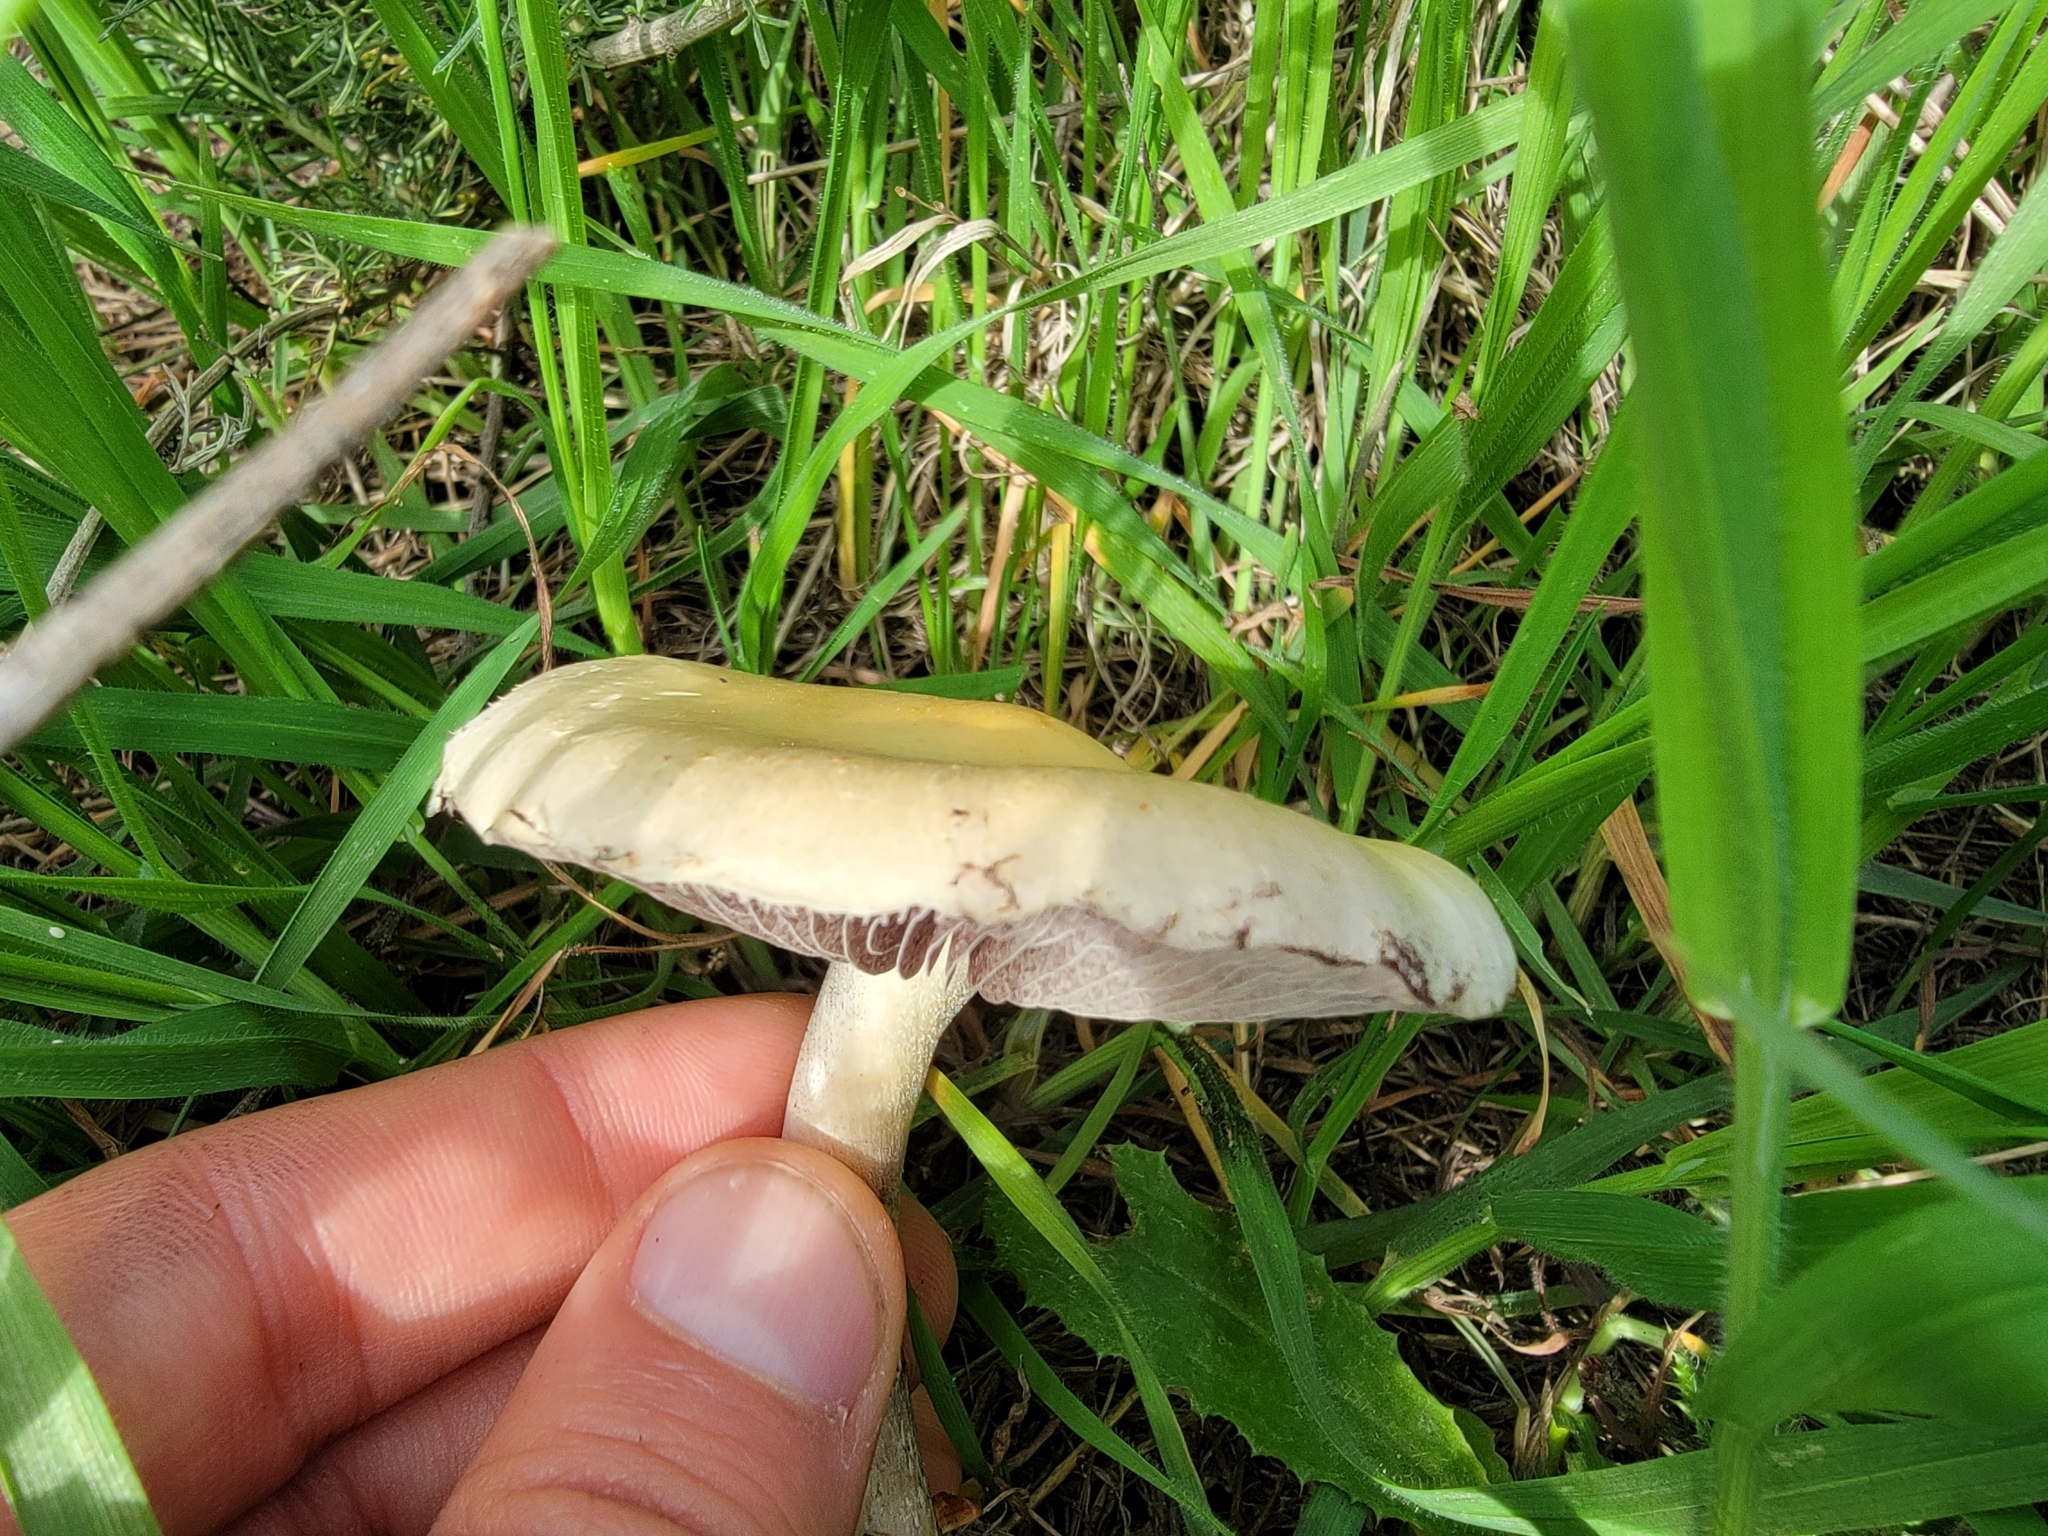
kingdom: Fungi
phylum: Basidiomycota
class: Agaricomycetes
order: Agaricales
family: Strophariaceae
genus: Leratiomyces
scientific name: Leratiomyces percevalii
